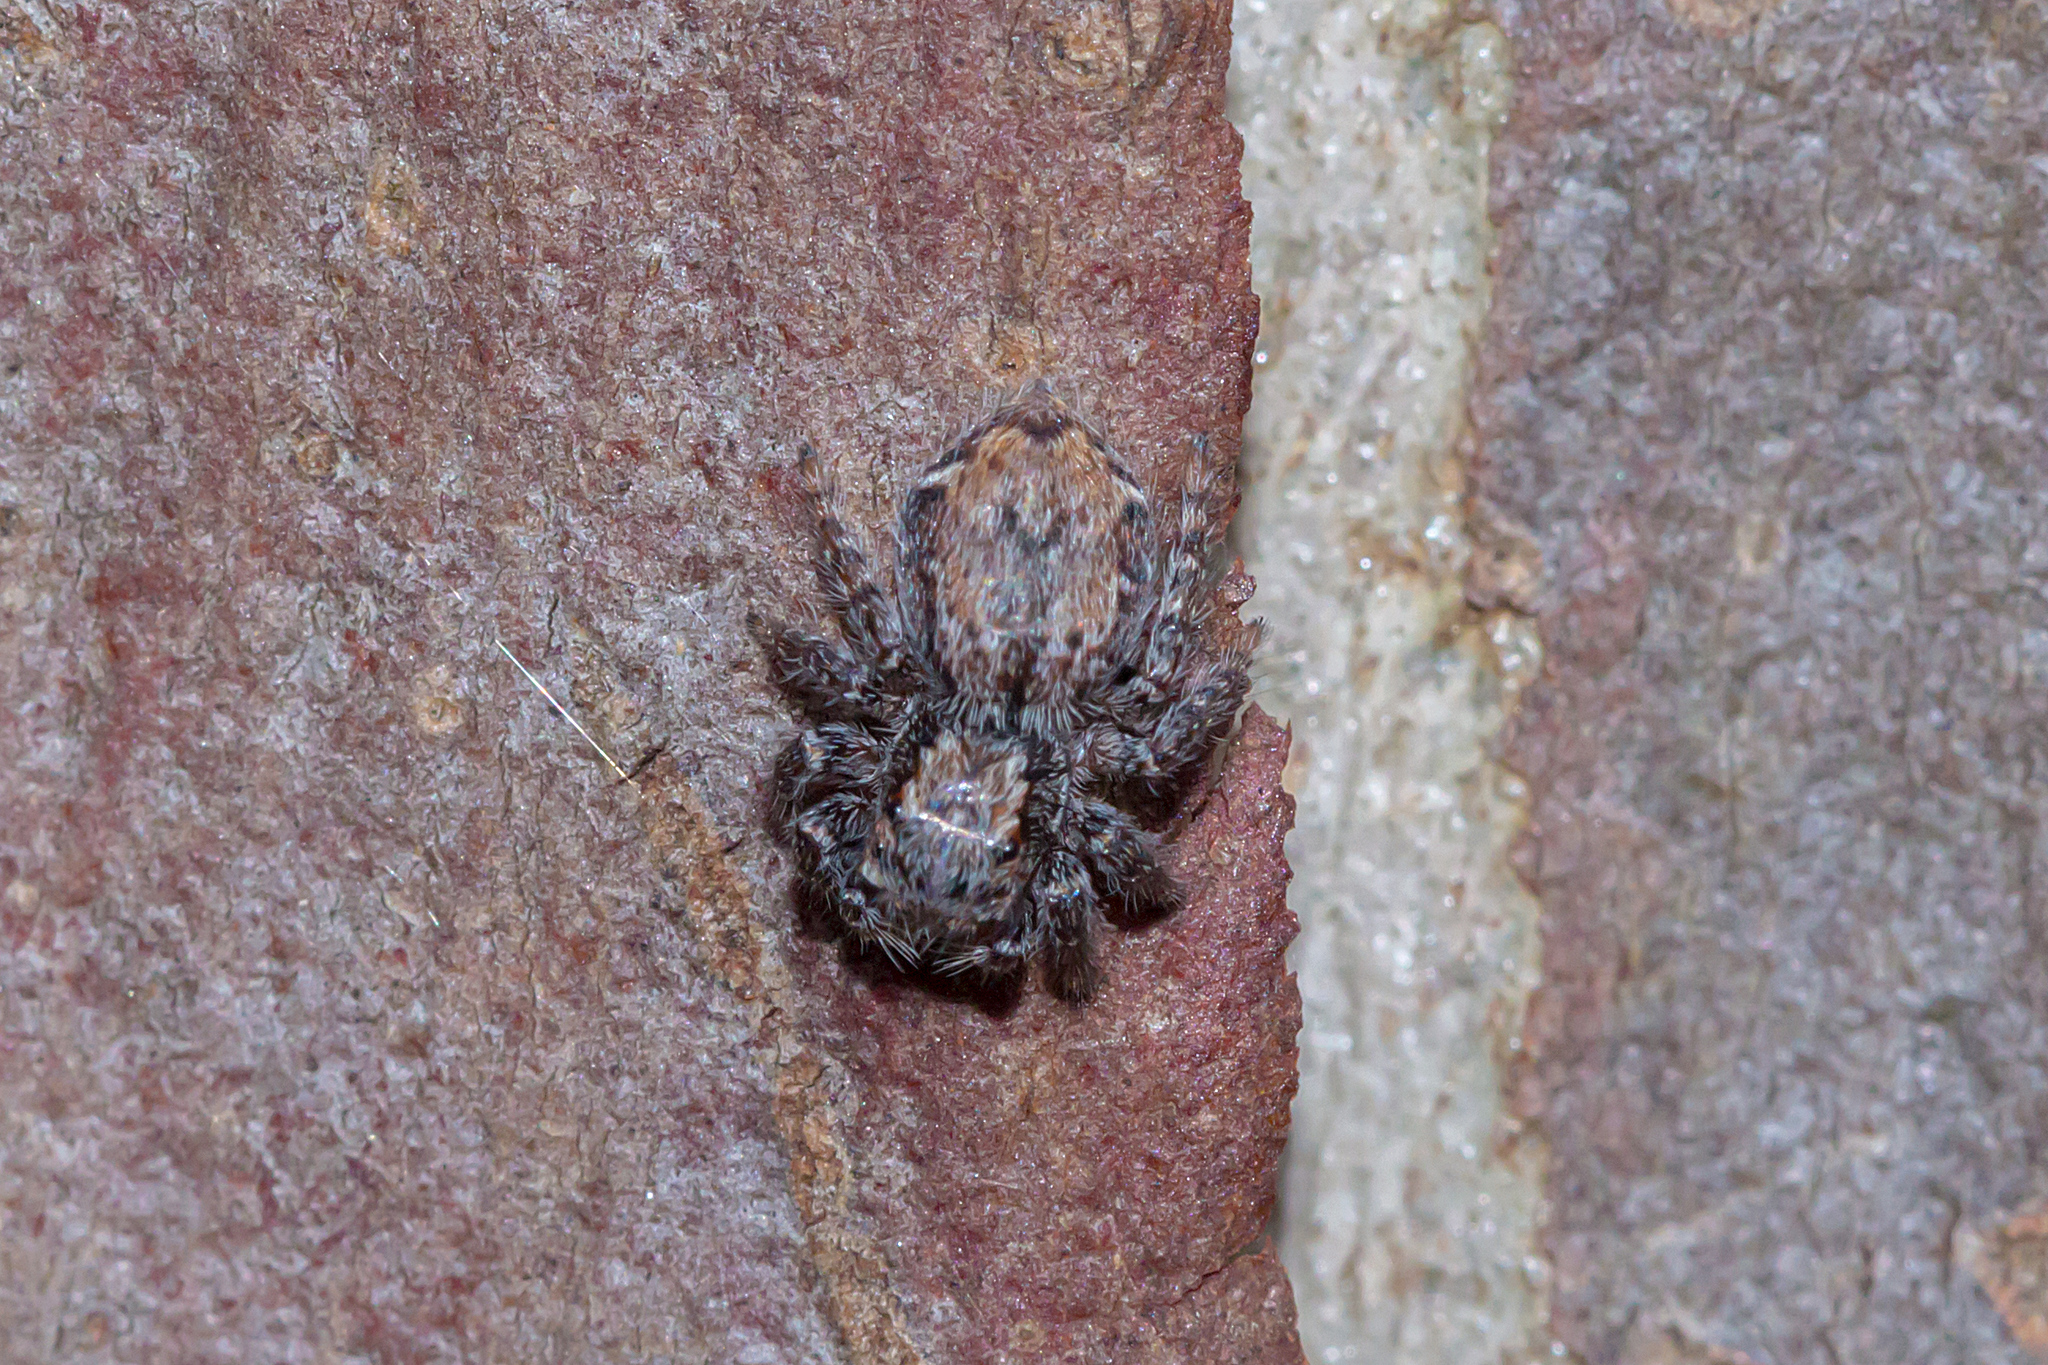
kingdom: Animalia
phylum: Arthropoda
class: Arachnida
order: Araneae
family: Salticidae
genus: Servaea
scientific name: Servaea incana
